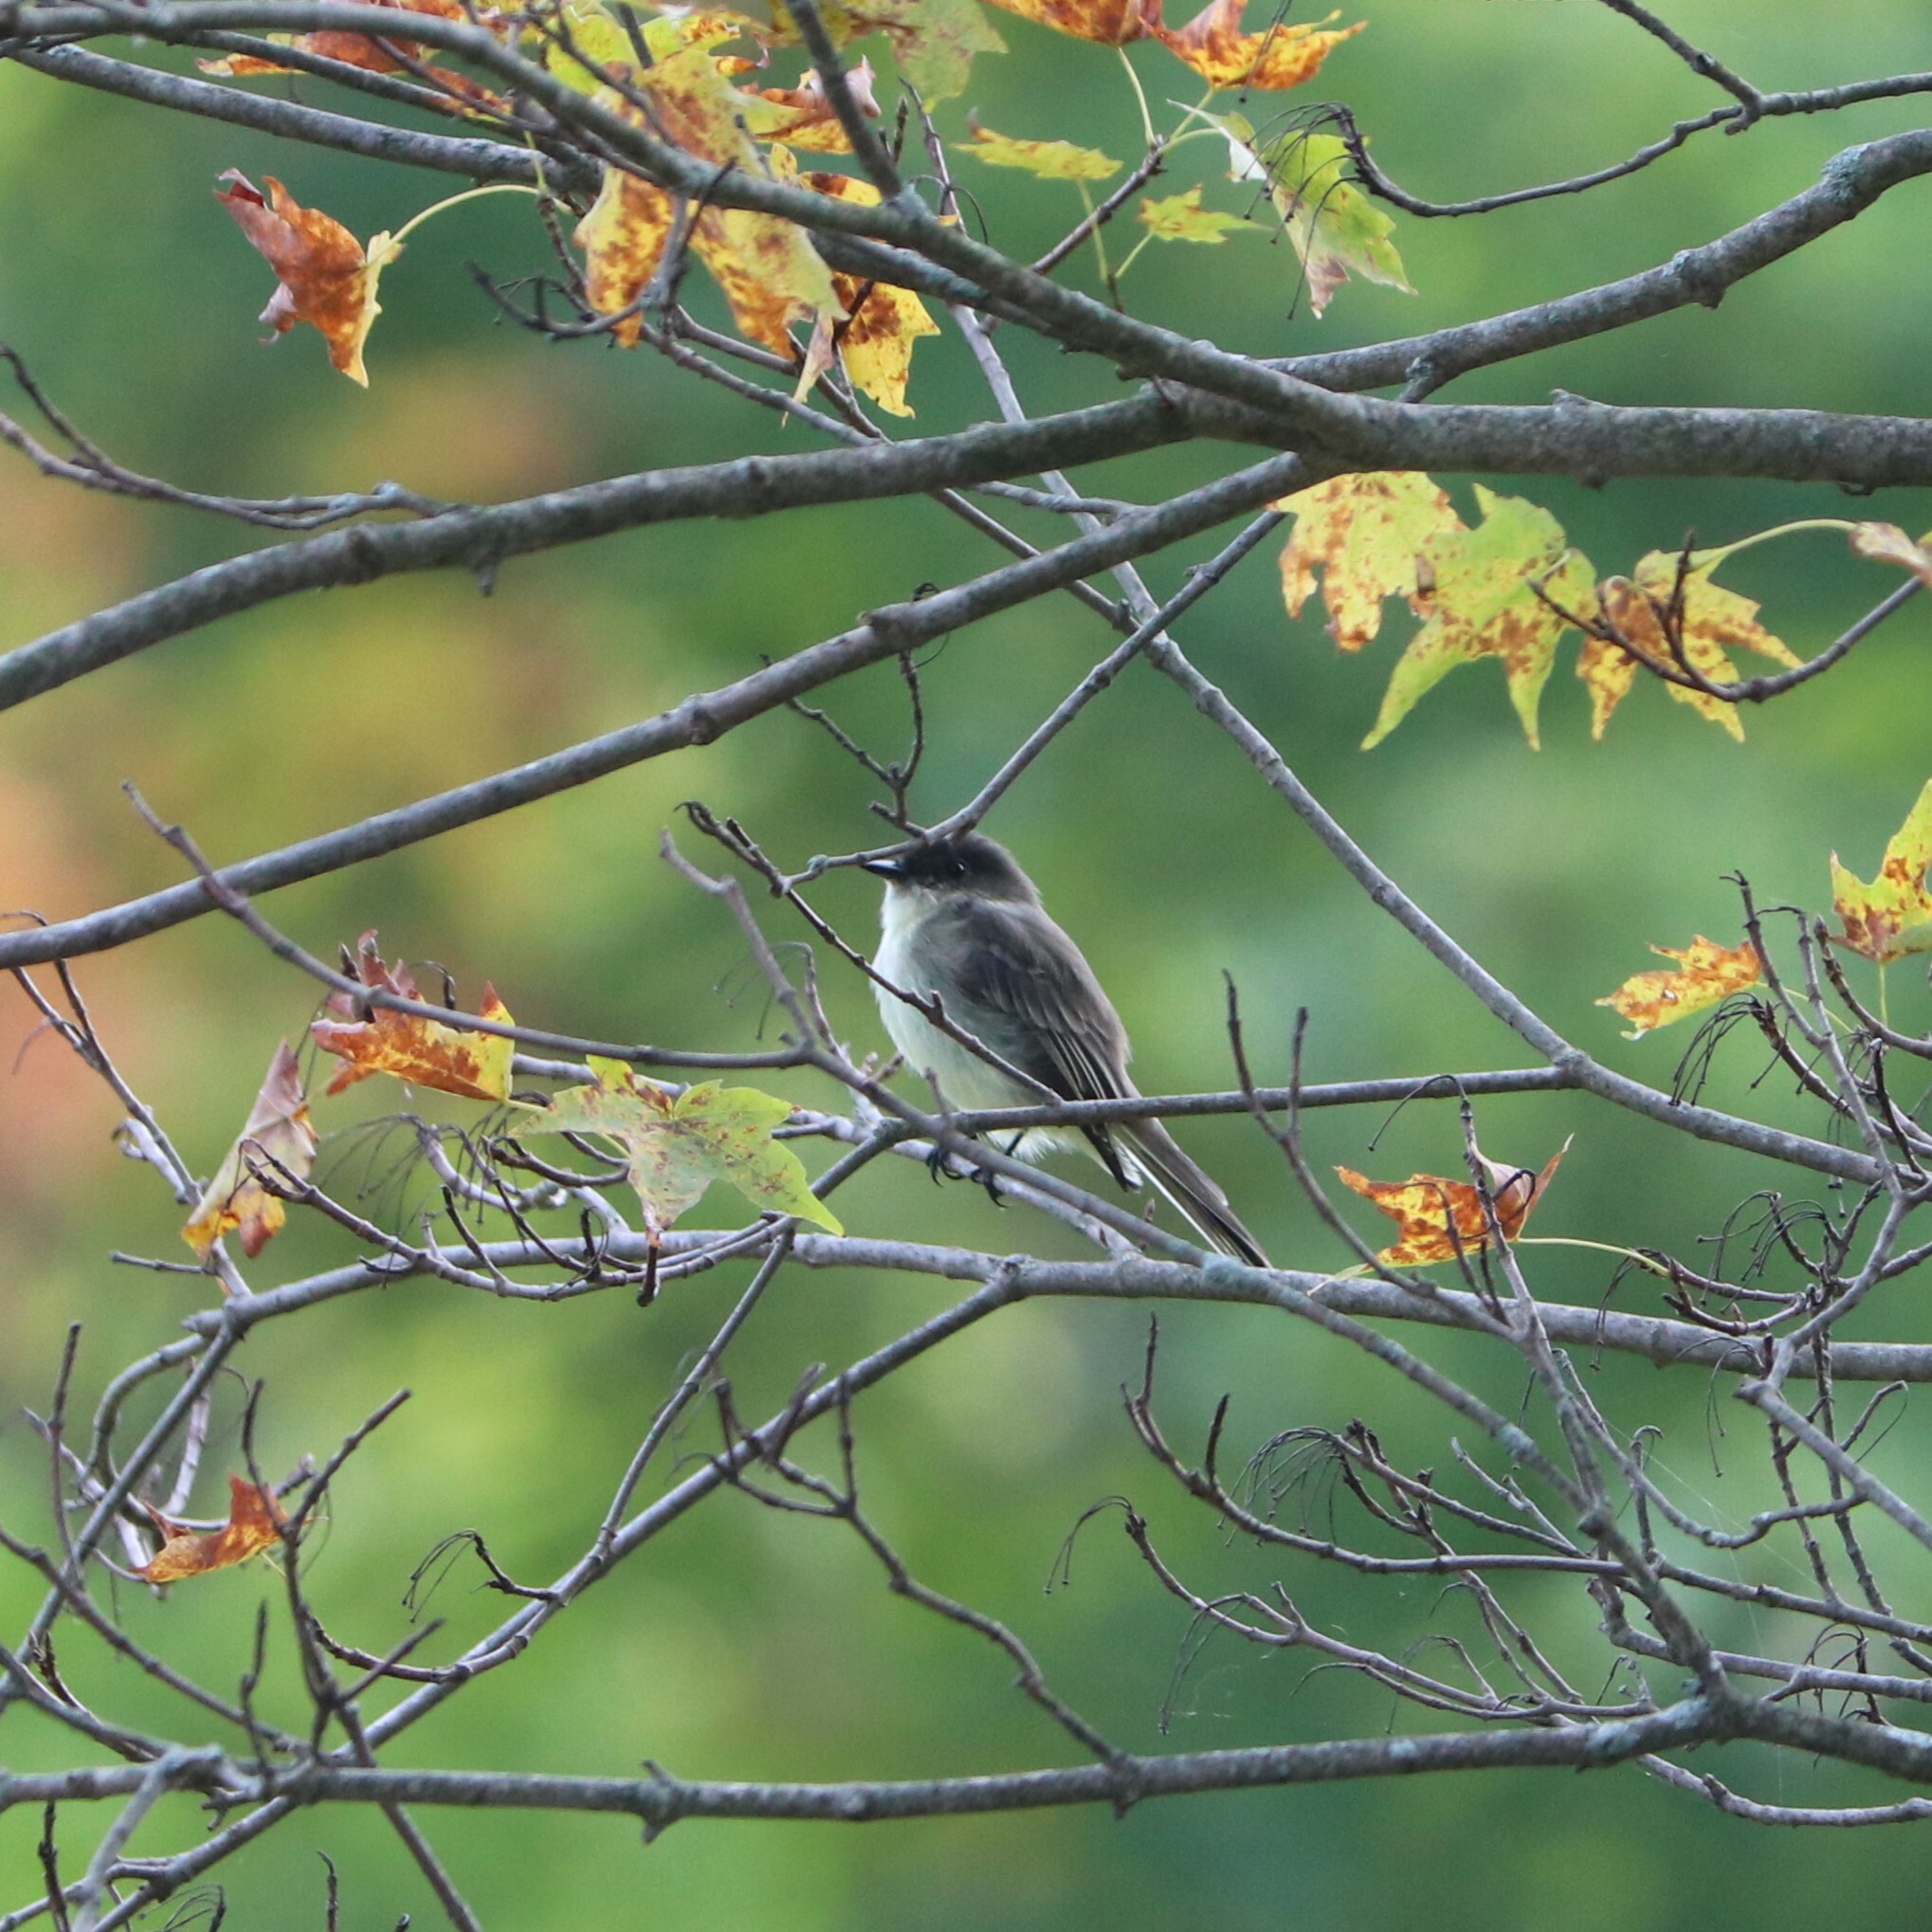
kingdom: Animalia
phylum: Chordata
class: Aves
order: Passeriformes
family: Tyrannidae
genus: Sayornis
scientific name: Sayornis phoebe
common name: Eastern phoebe
